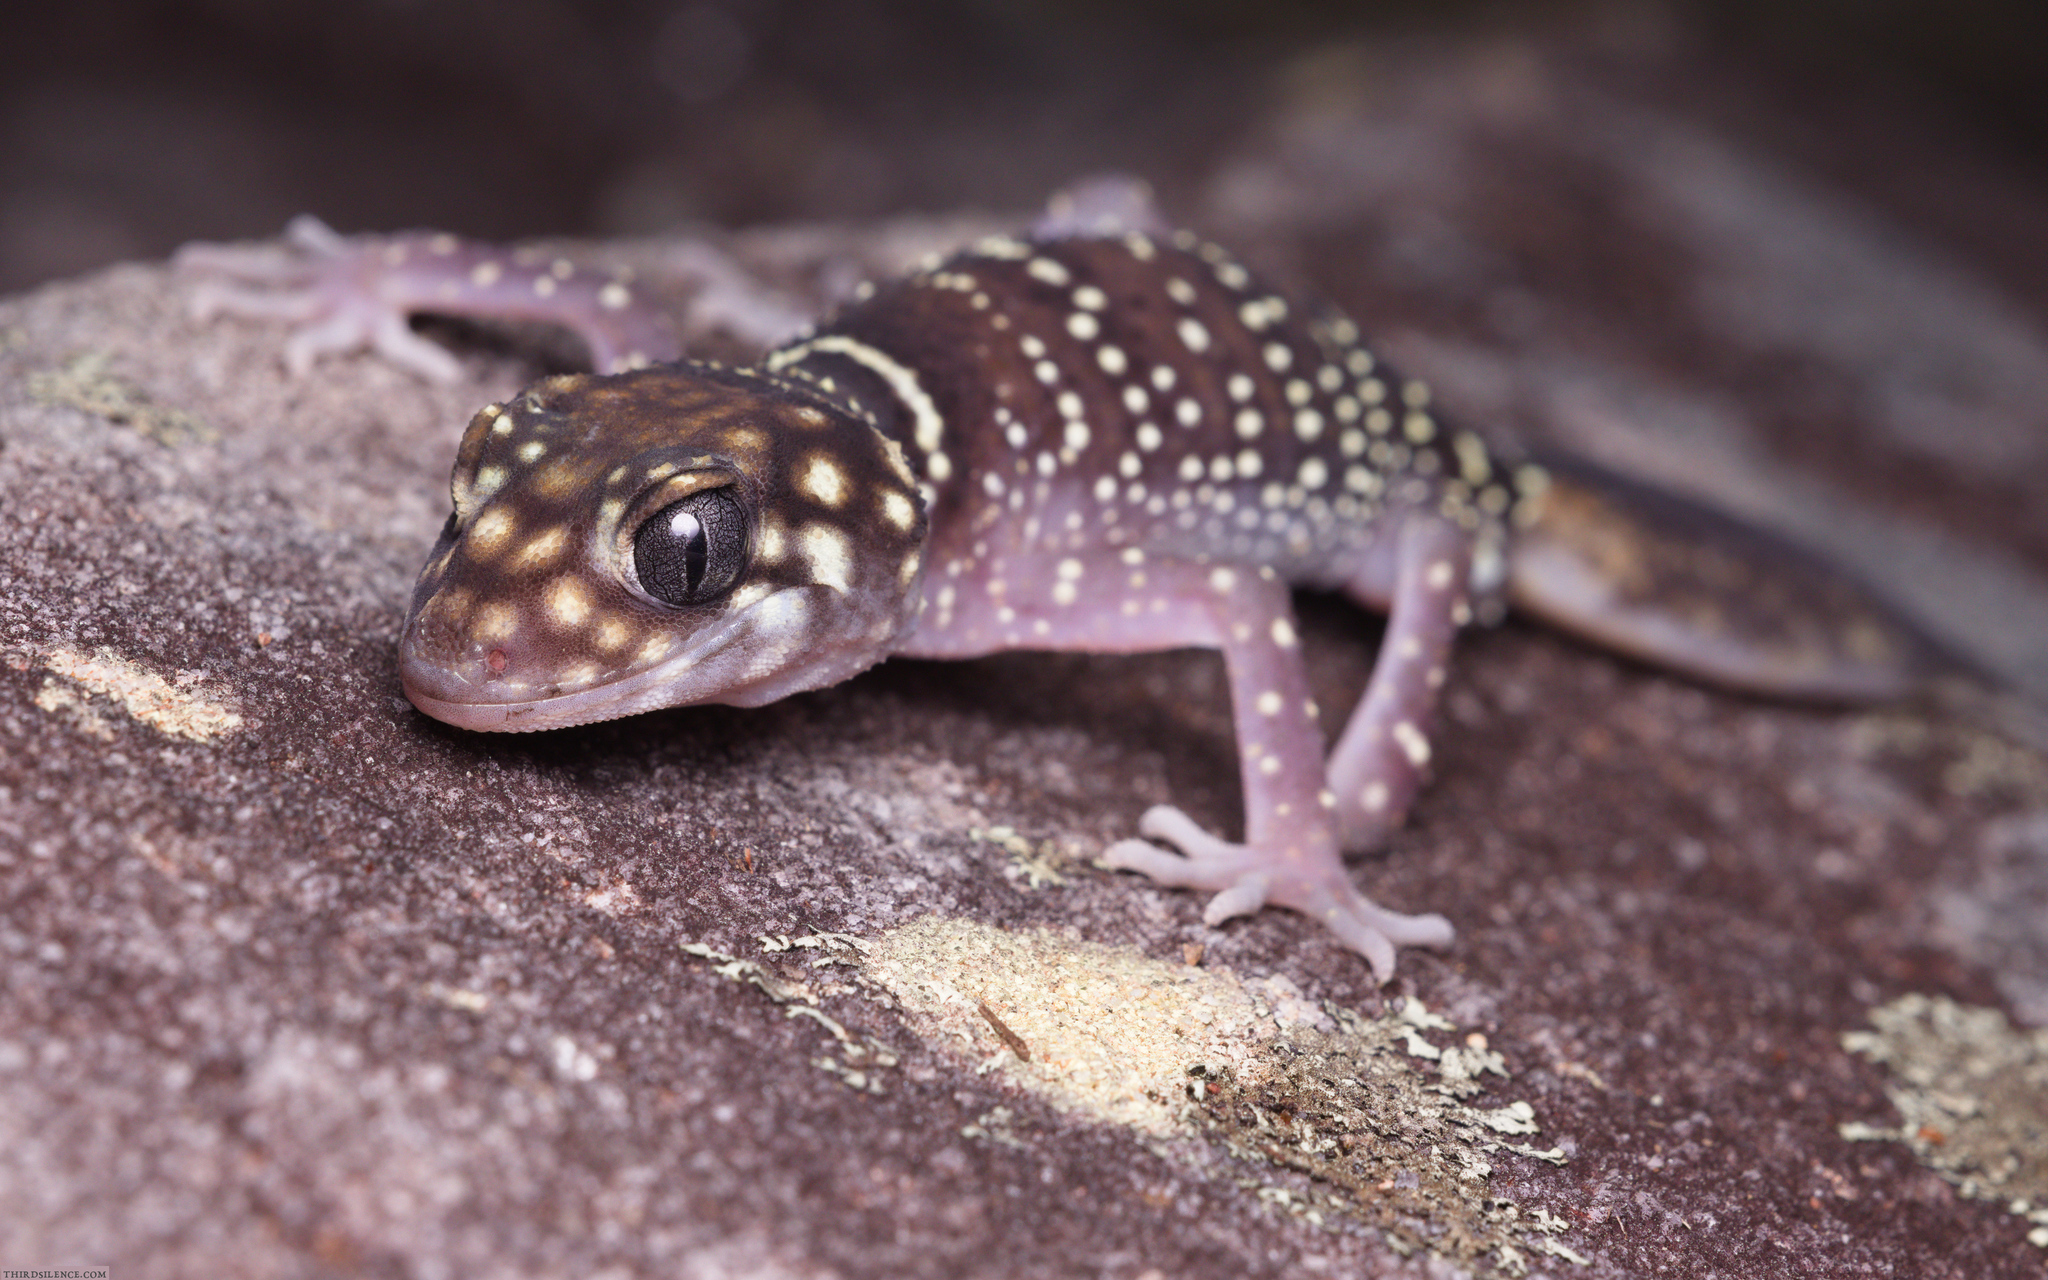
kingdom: Animalia
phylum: Chordata
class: Squamata
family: Carphodactylidae
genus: Underwoodisaurus
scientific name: Underwoodisaurus milii
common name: Barking gecko
